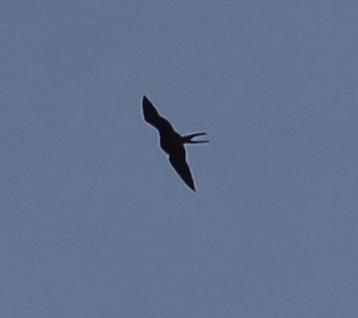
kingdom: Animalia
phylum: Chordata
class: Aves
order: Suliformes
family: Fregatidae
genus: Fregata
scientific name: Fregata magnificens
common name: Magnificent frigatebird
